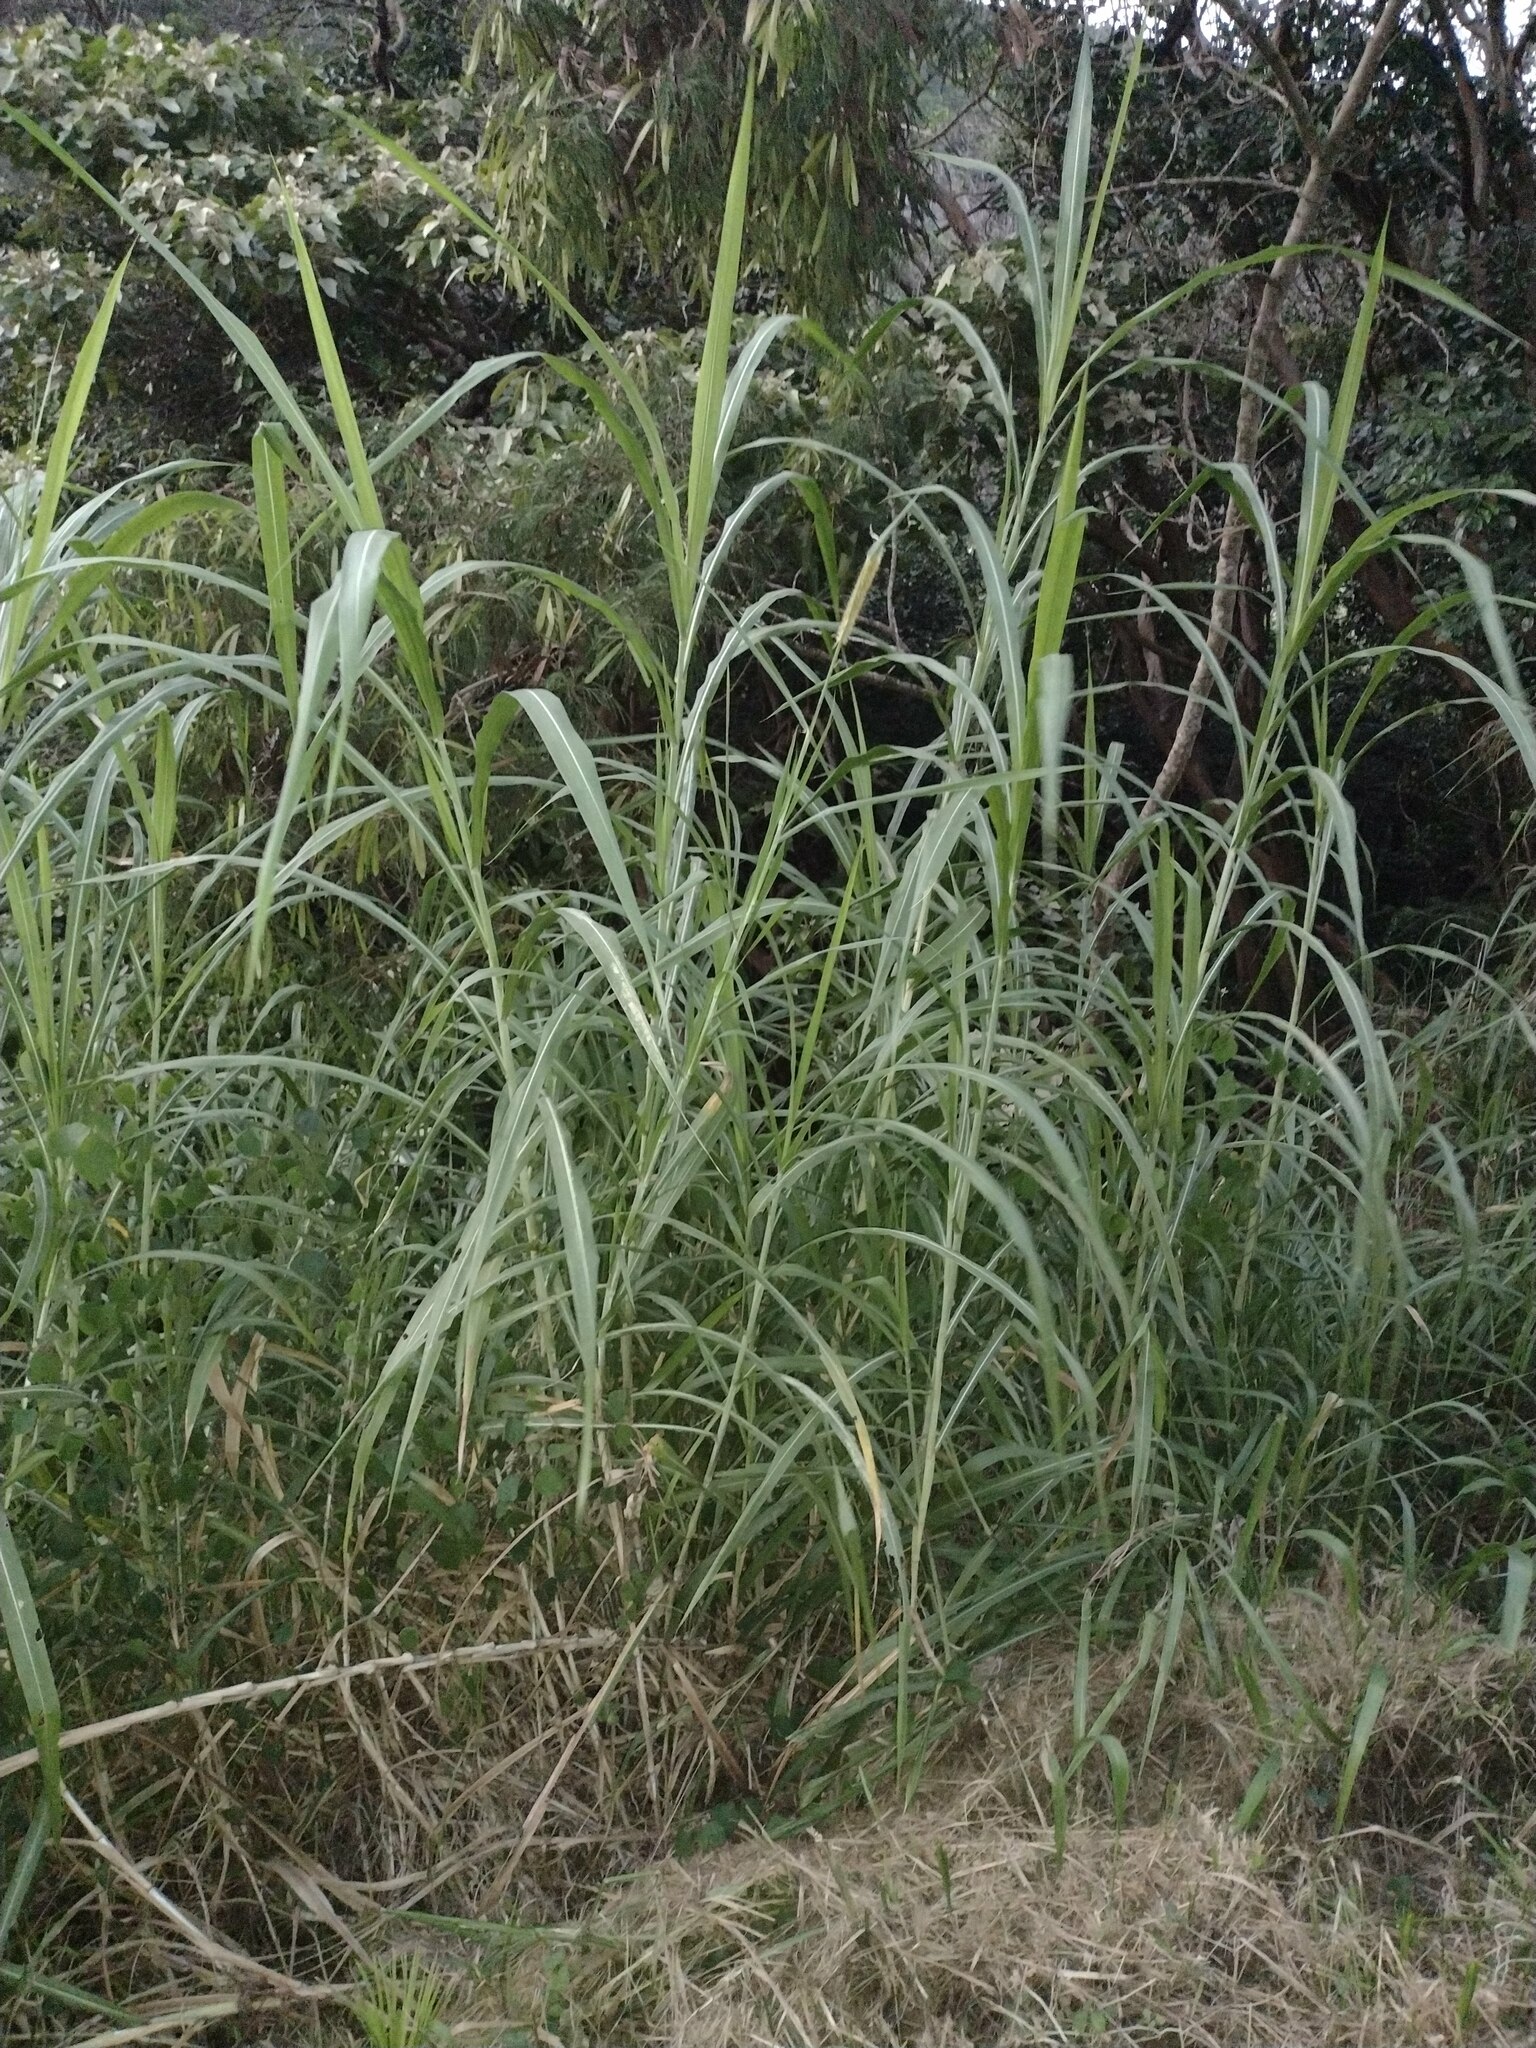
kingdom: Plantae
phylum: Tracheophyta
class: Liliopsida
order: Poales
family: Poaceae
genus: Cenchrus
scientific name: Cenchrus purpureus
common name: Elephant grass
